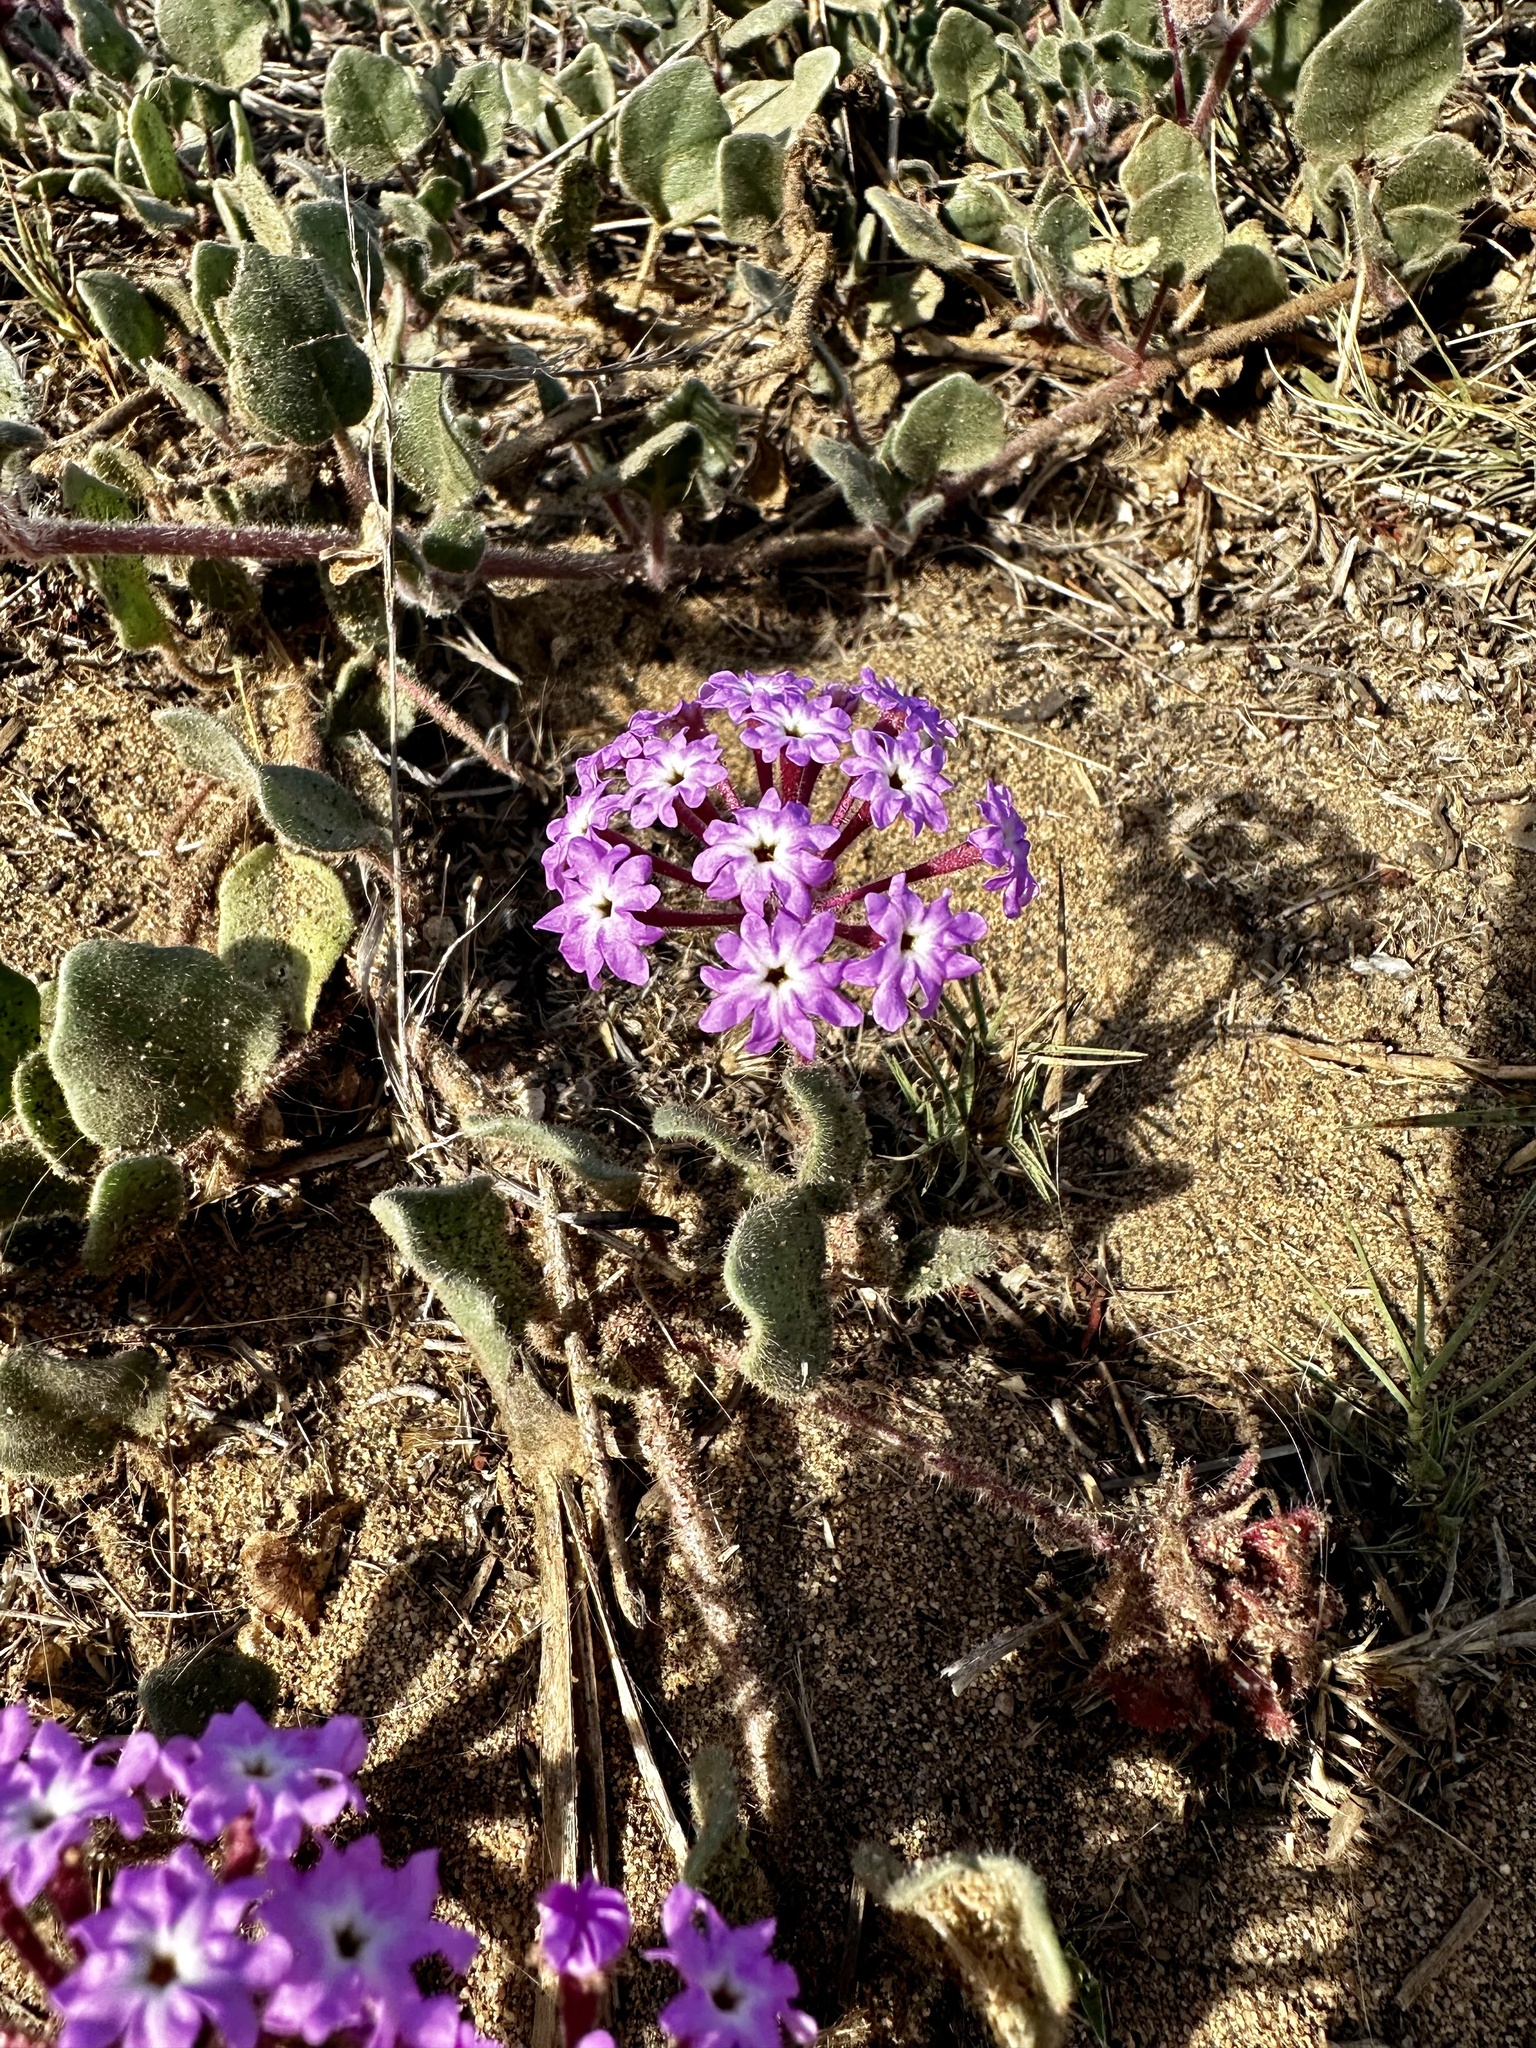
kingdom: Plantae
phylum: Tracheophyta
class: Magnoliopsida
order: Caryophyllales
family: Nyctaginaceae
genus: Abronia
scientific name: Abronia umbellata
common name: Sand-verbena
